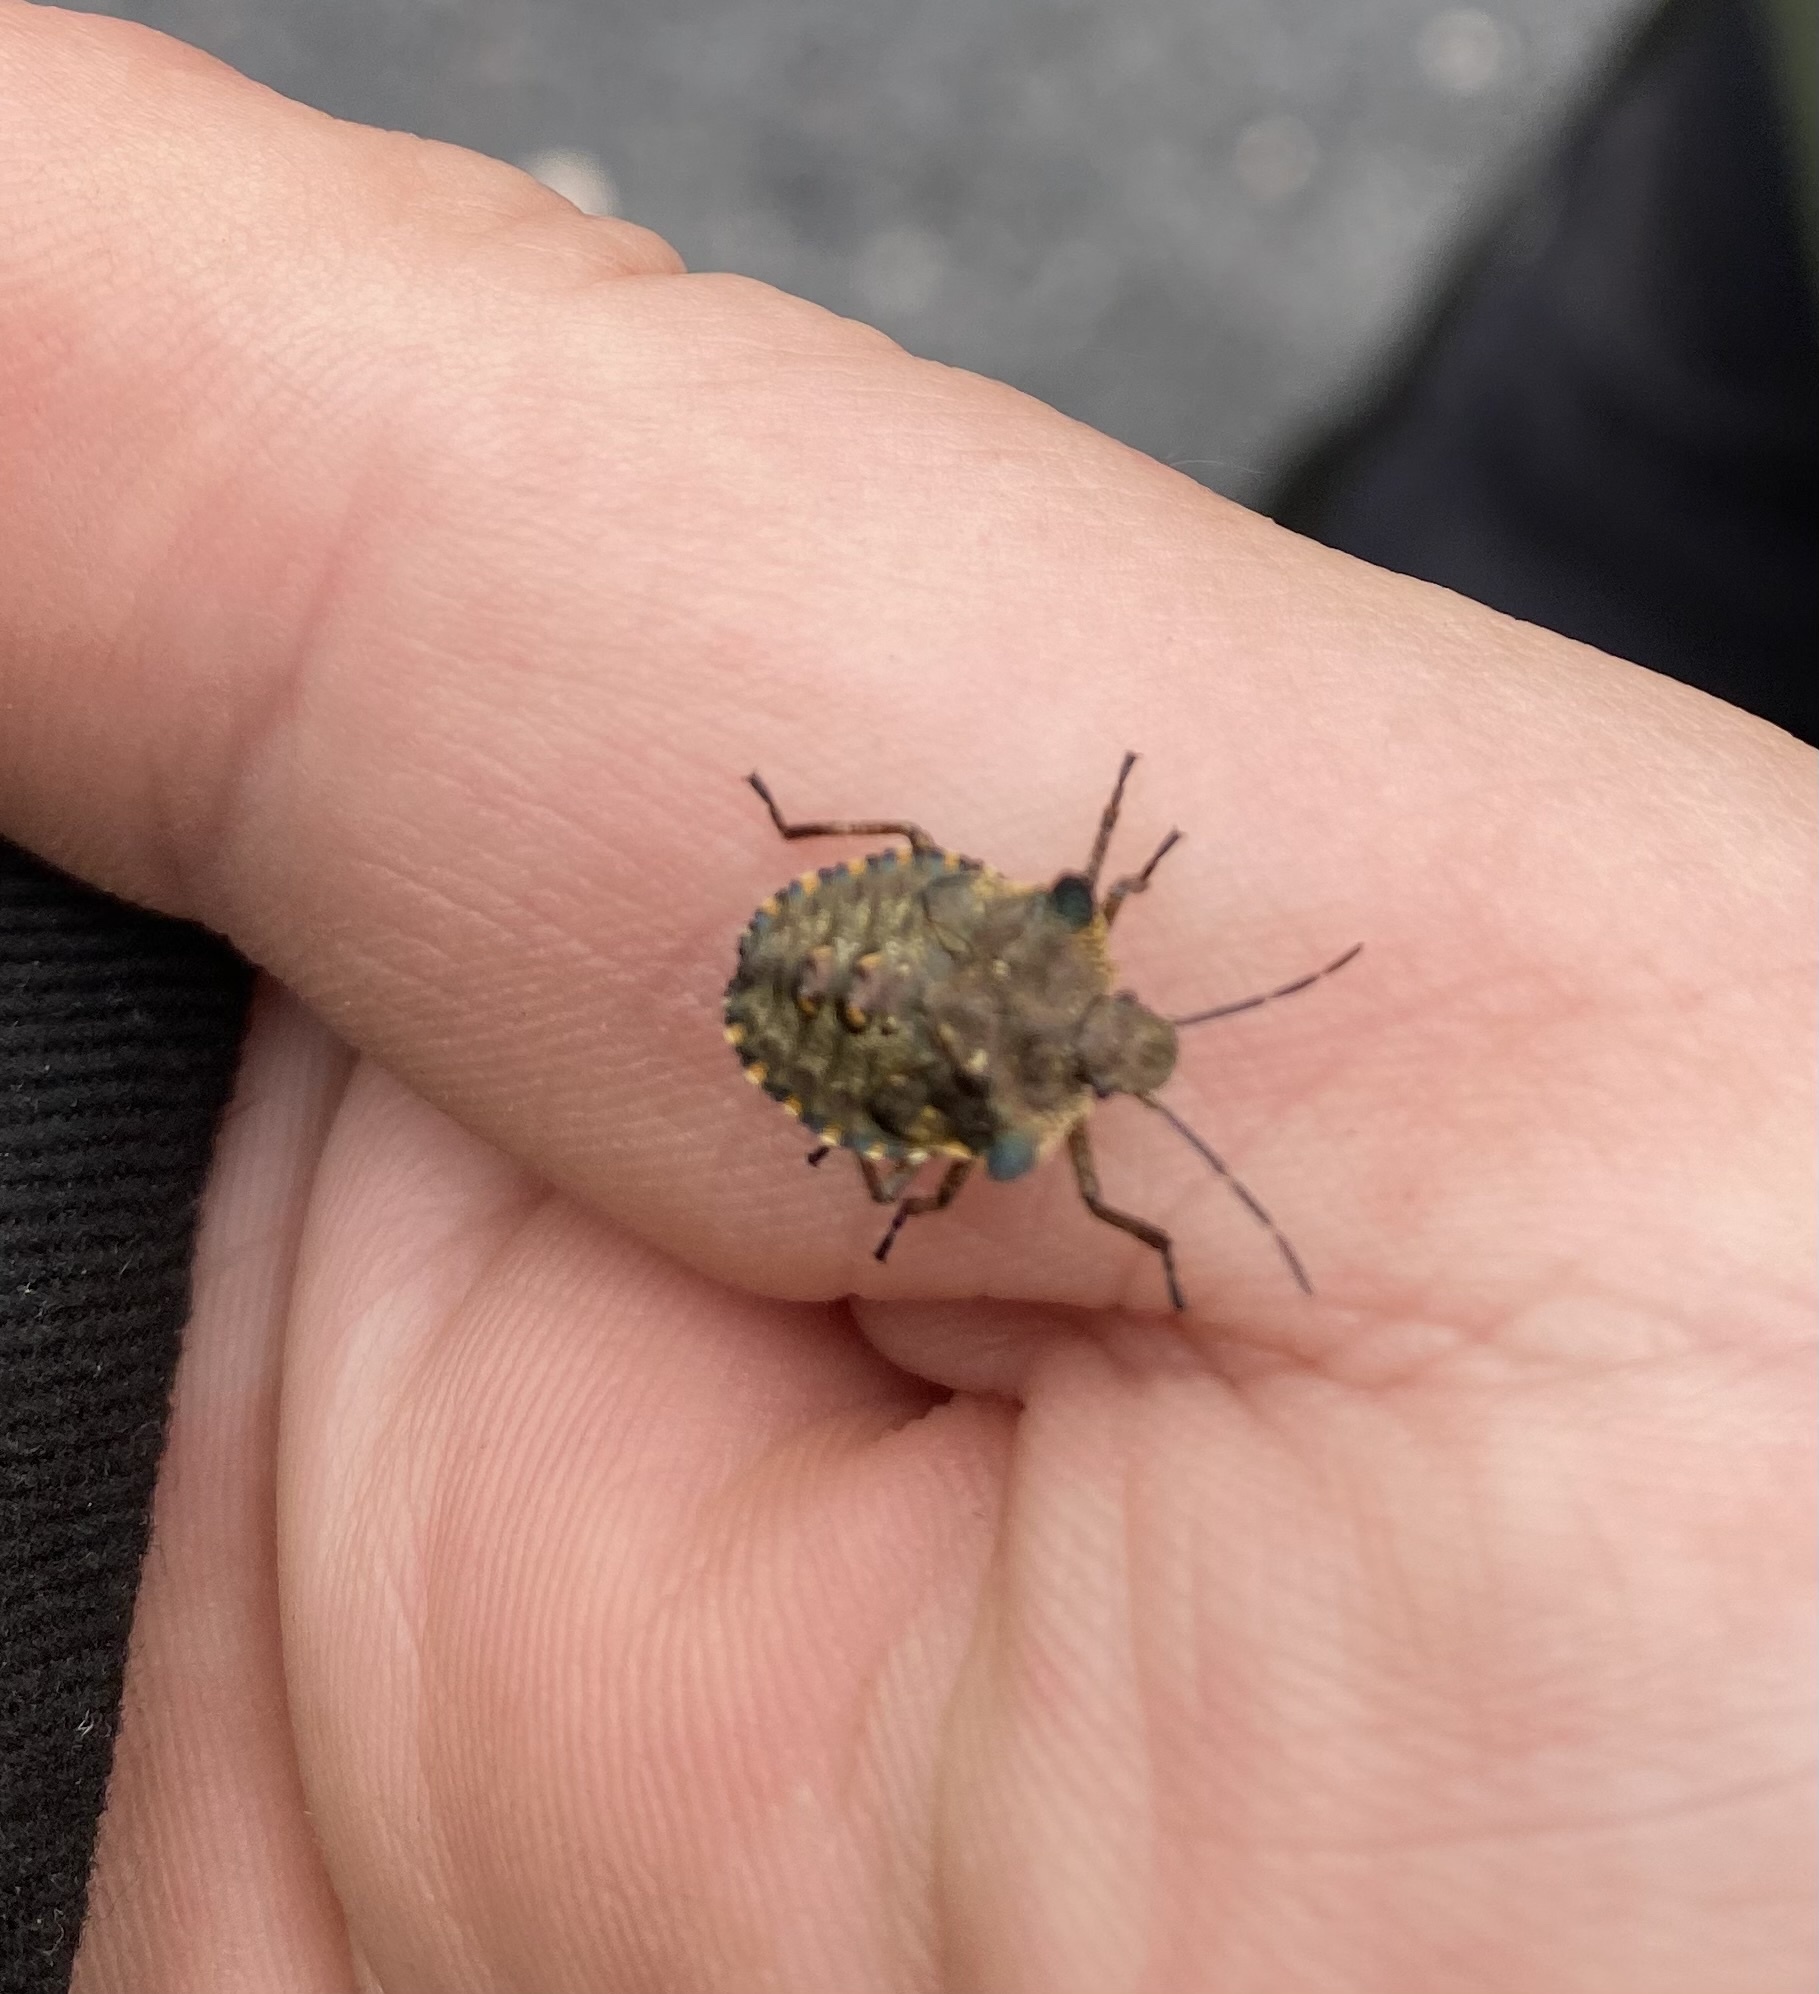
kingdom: Animalia
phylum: Arthropoda
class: Insecta
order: Hemiptera
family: Pentatomidae
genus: Pentatoma
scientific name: Pentatoma rufipes
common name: Forest bug
